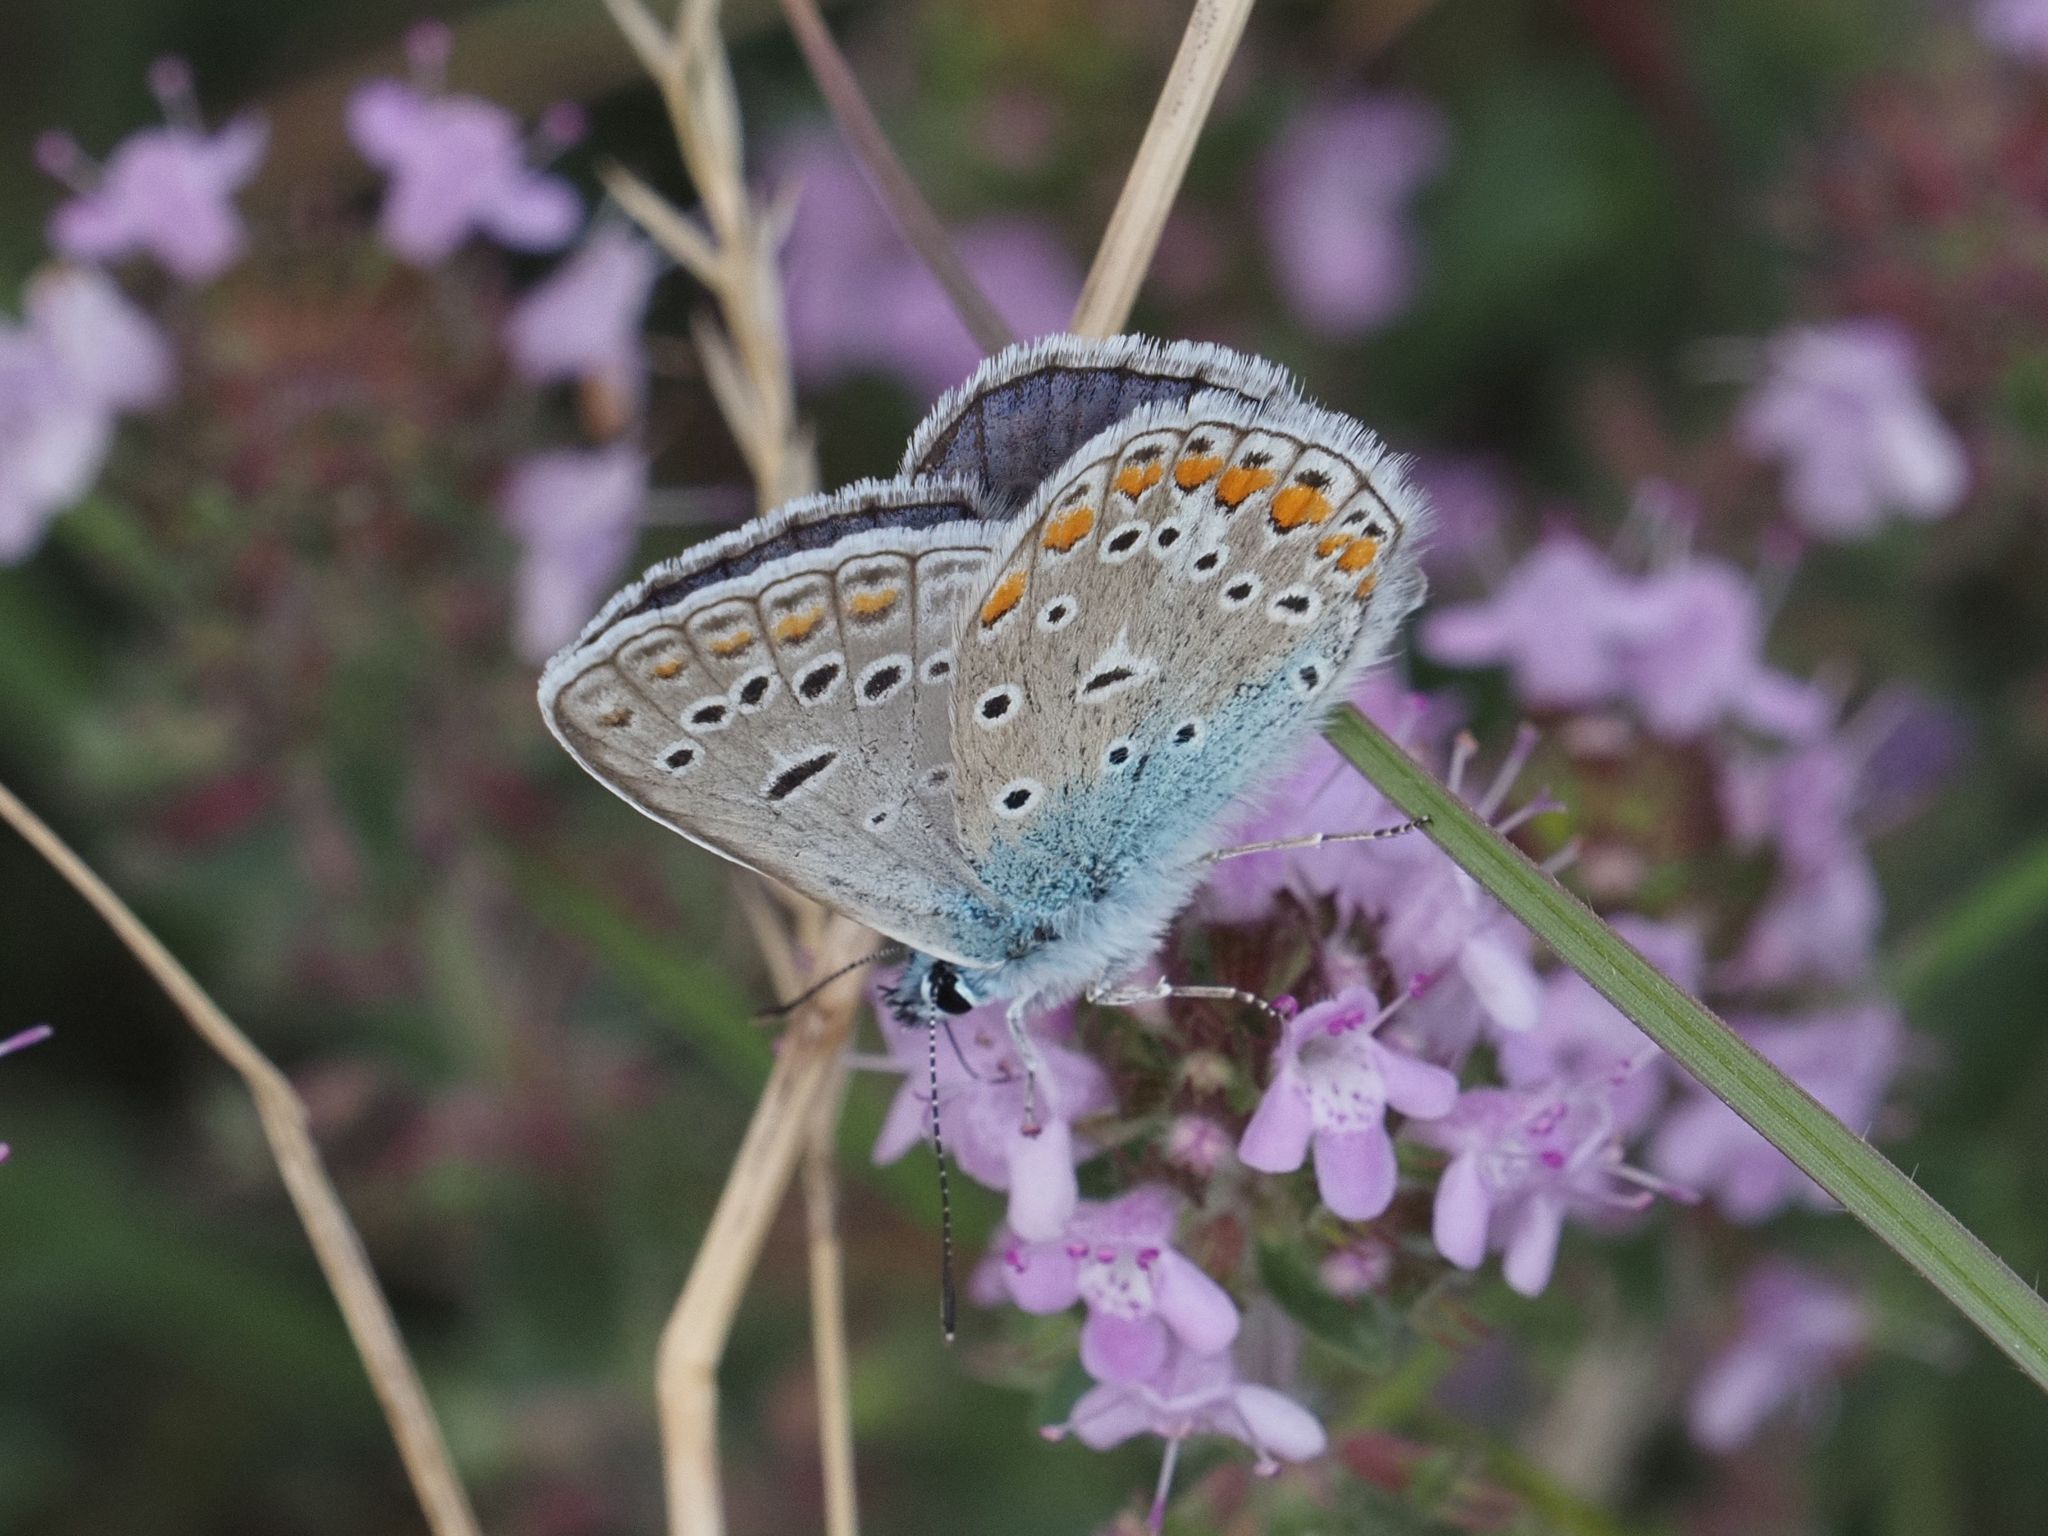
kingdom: Animalia
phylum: Arthropoda
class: Insecta
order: Lepidoptera
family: Lycaenidae
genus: Polyommatus
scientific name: Polyommatus icarus
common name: Common blue
